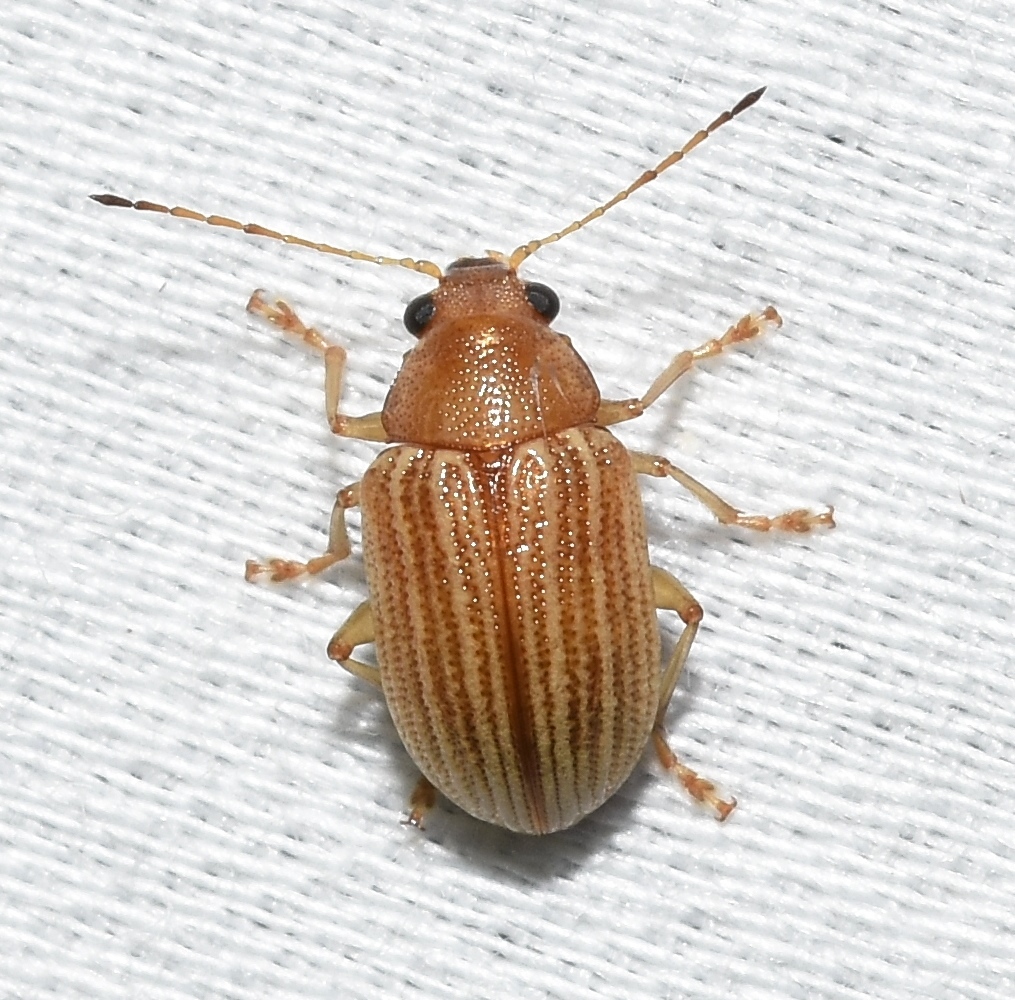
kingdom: Animalia
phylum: Arthropoda
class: Insecta
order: Coleoptera
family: Chrysomelidae
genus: Colaspis
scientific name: Colaspis brunnea
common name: Grape colaspis
